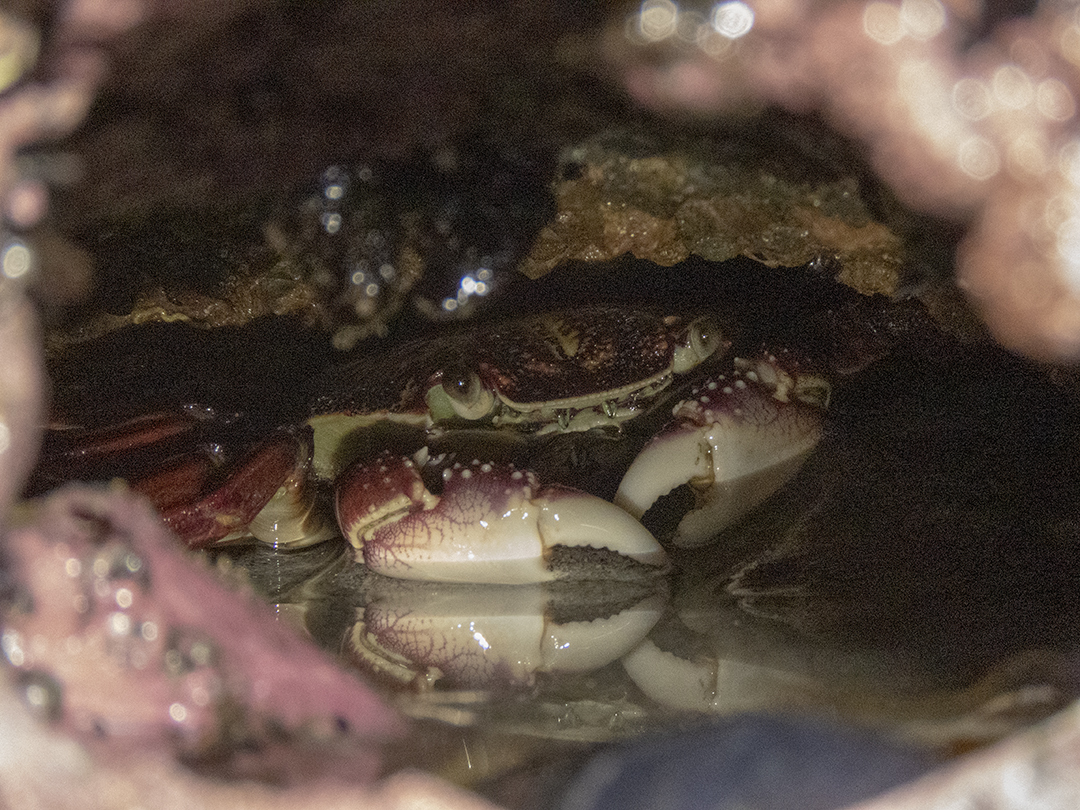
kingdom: Animalia
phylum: Arthropoda
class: Malacostraca
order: Decapoda
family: Grapsidae
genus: Leptograpsus
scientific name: Leptograpsus variegatus
